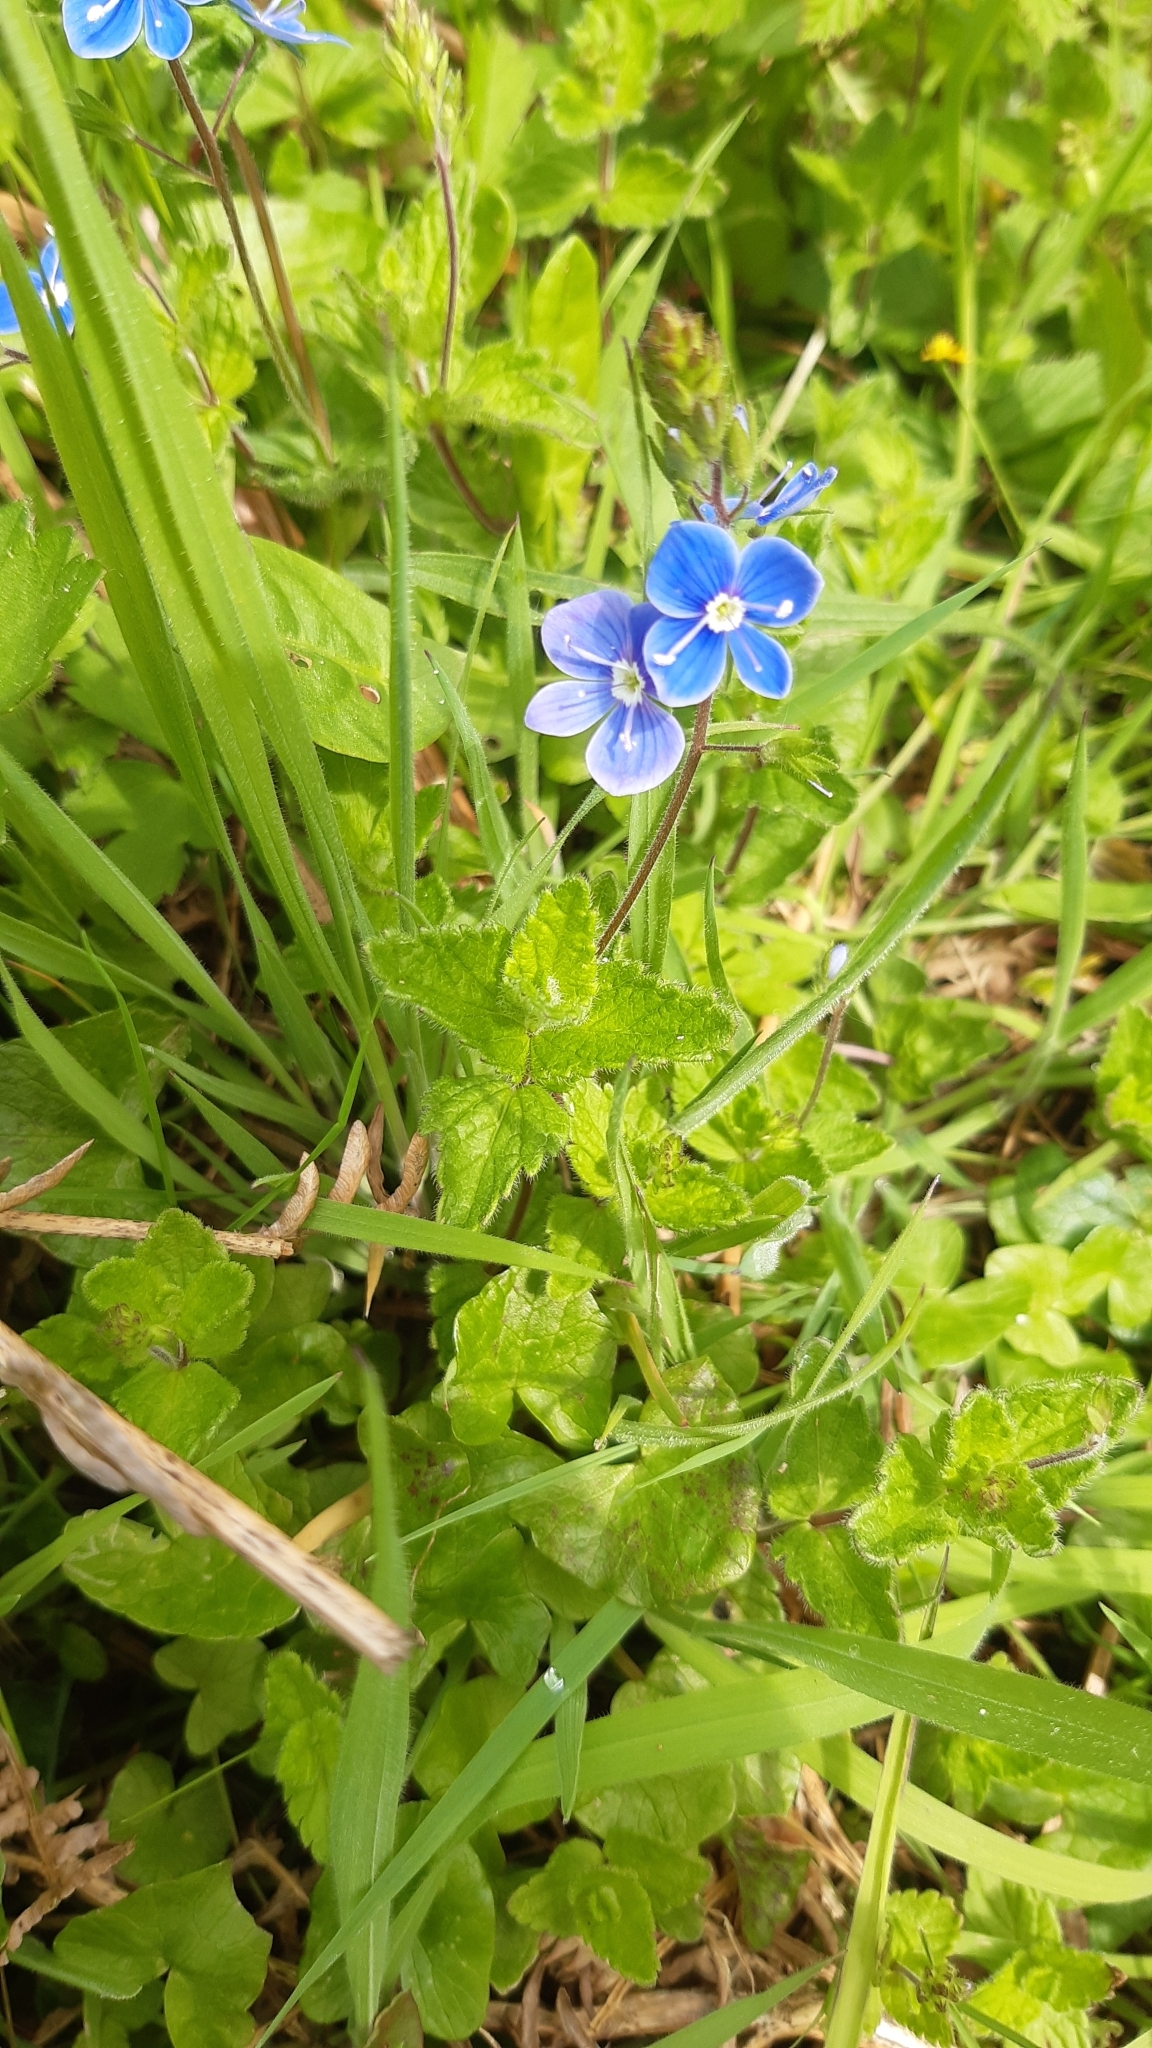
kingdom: Plantae
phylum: Tracheophyta
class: Magnoliopsida
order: Lamiales
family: Plantaginaceae
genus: Veronica
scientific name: Veronica chamaedrys
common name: Germander speedwell
